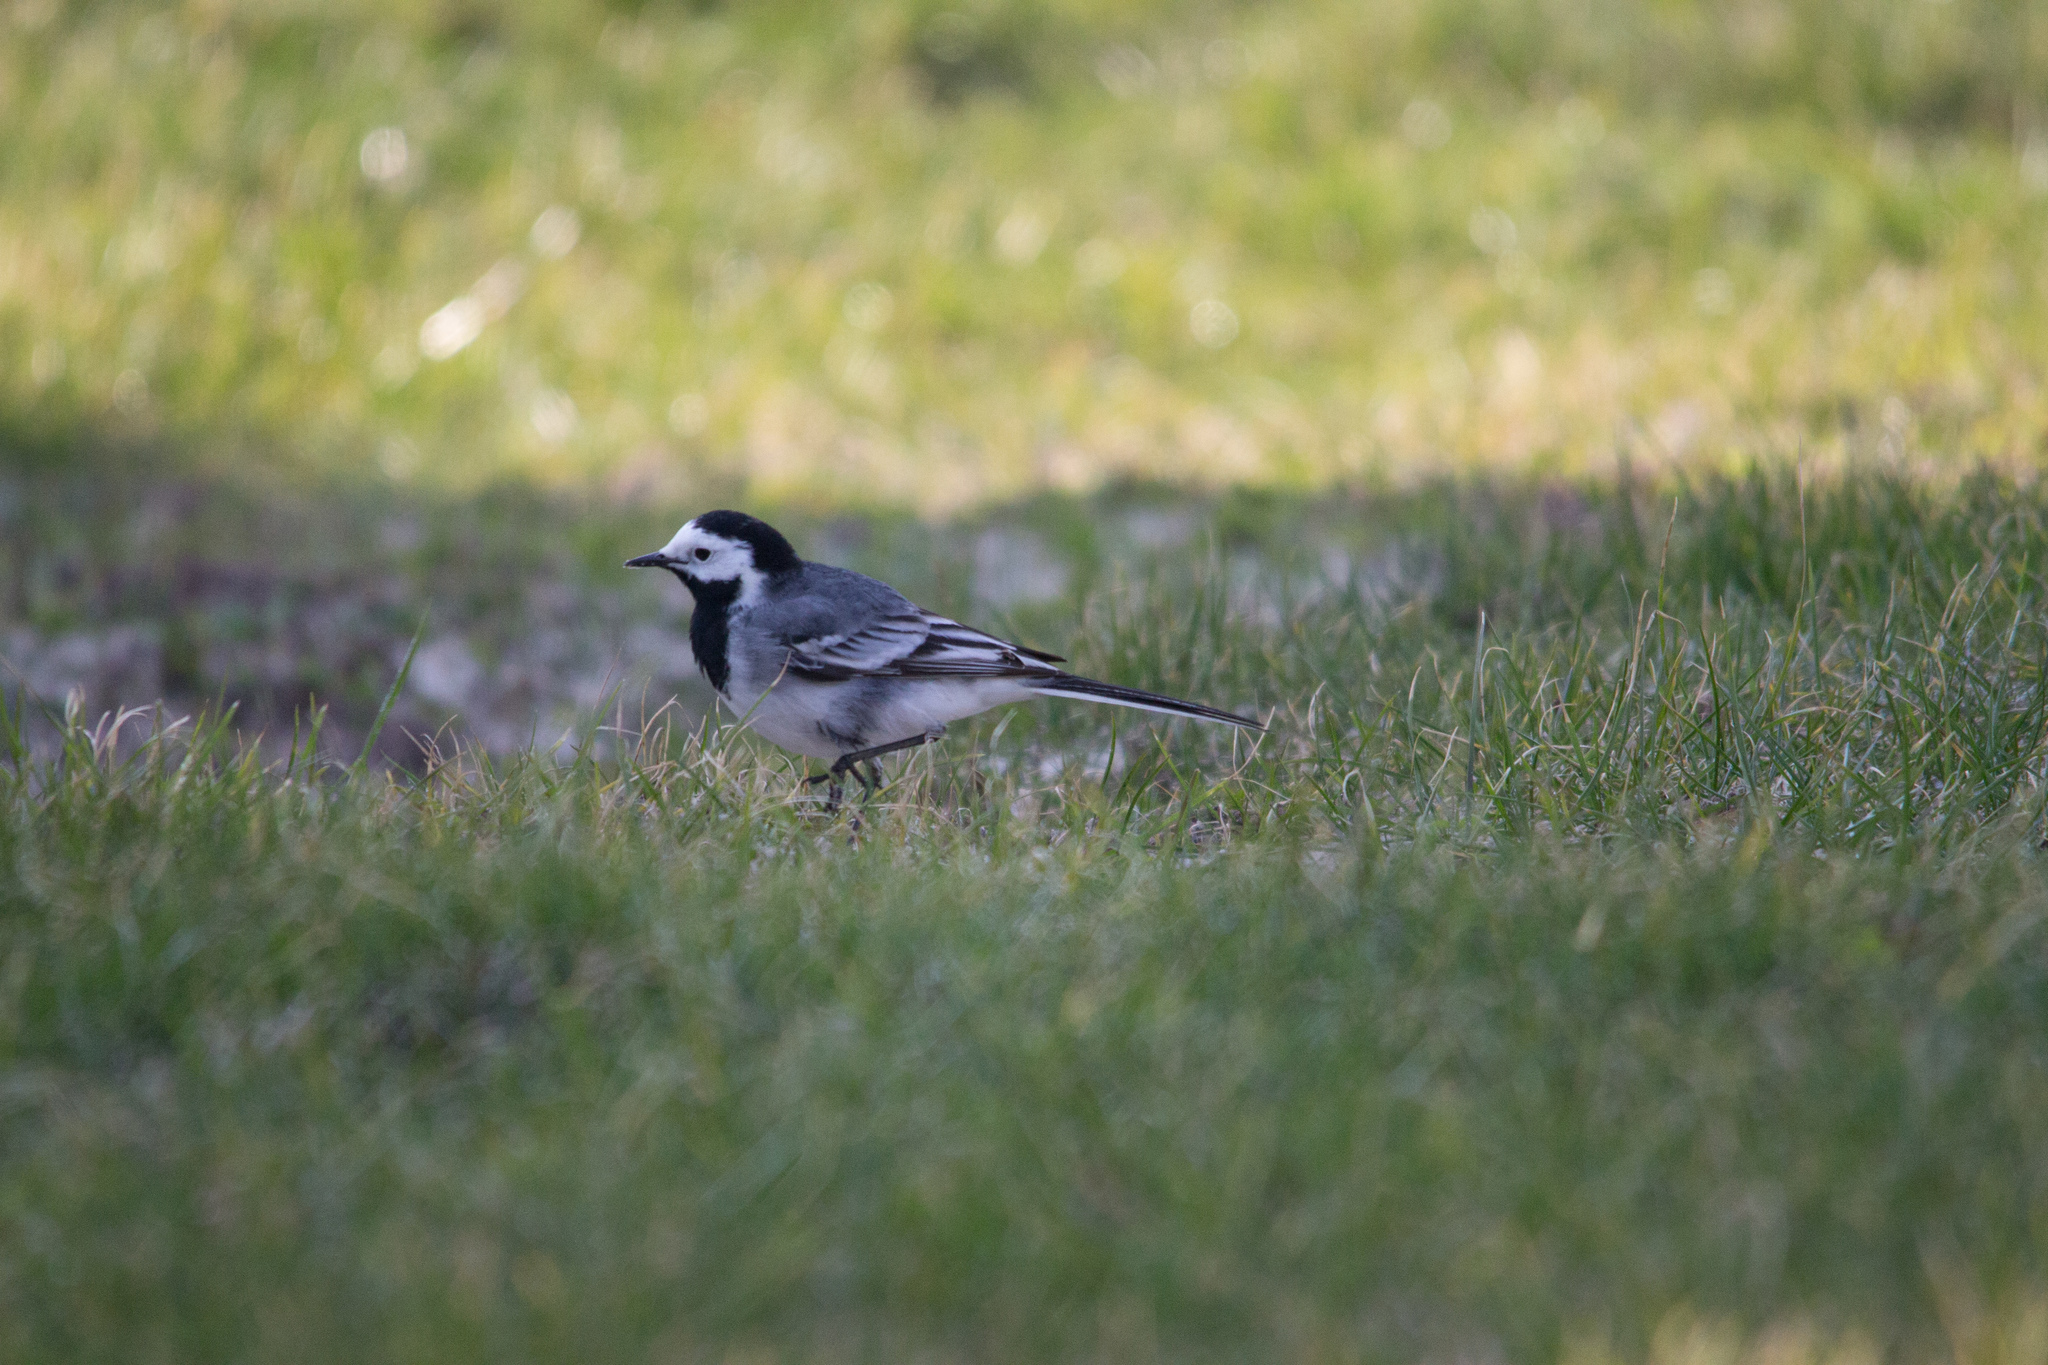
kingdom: Animalia
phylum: Chordata
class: Aves
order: Passeriformes
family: Motacillidae
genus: Motacilla
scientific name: Motacilla alba
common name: White wagtail
